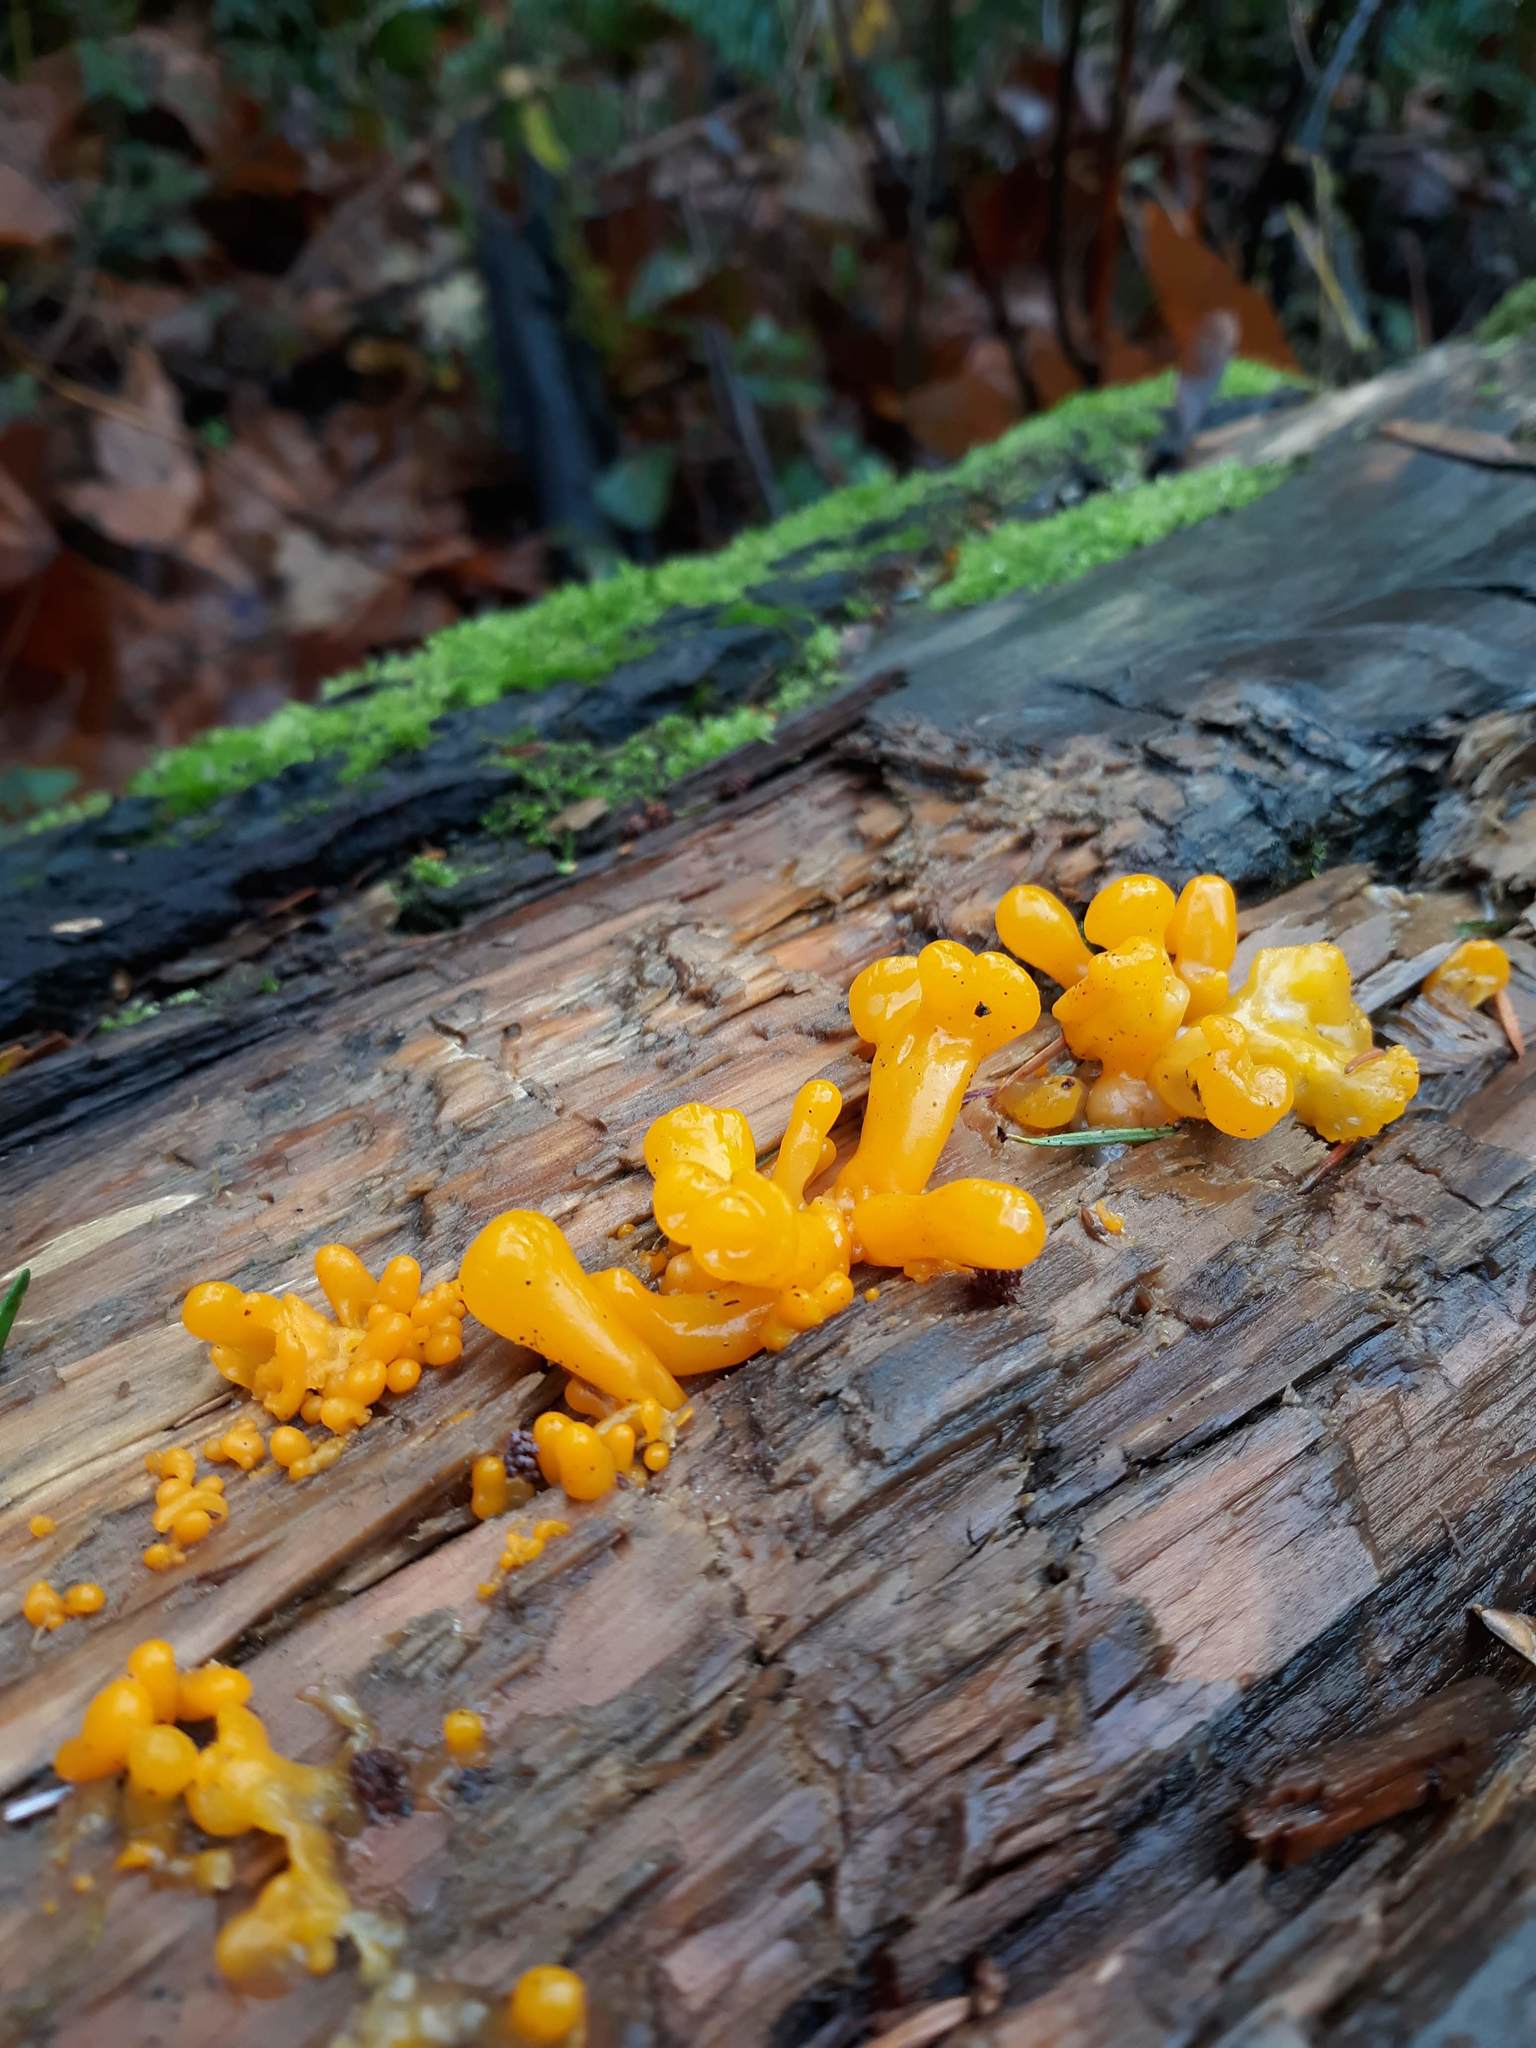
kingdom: Fungi
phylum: Basidiomycota
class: Dacrymycetes
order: Dacrymycetales
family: Dacrymycetaceae
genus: Dacrymyces
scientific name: Dacrymyces chrysospermus
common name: Orange jelly spot
